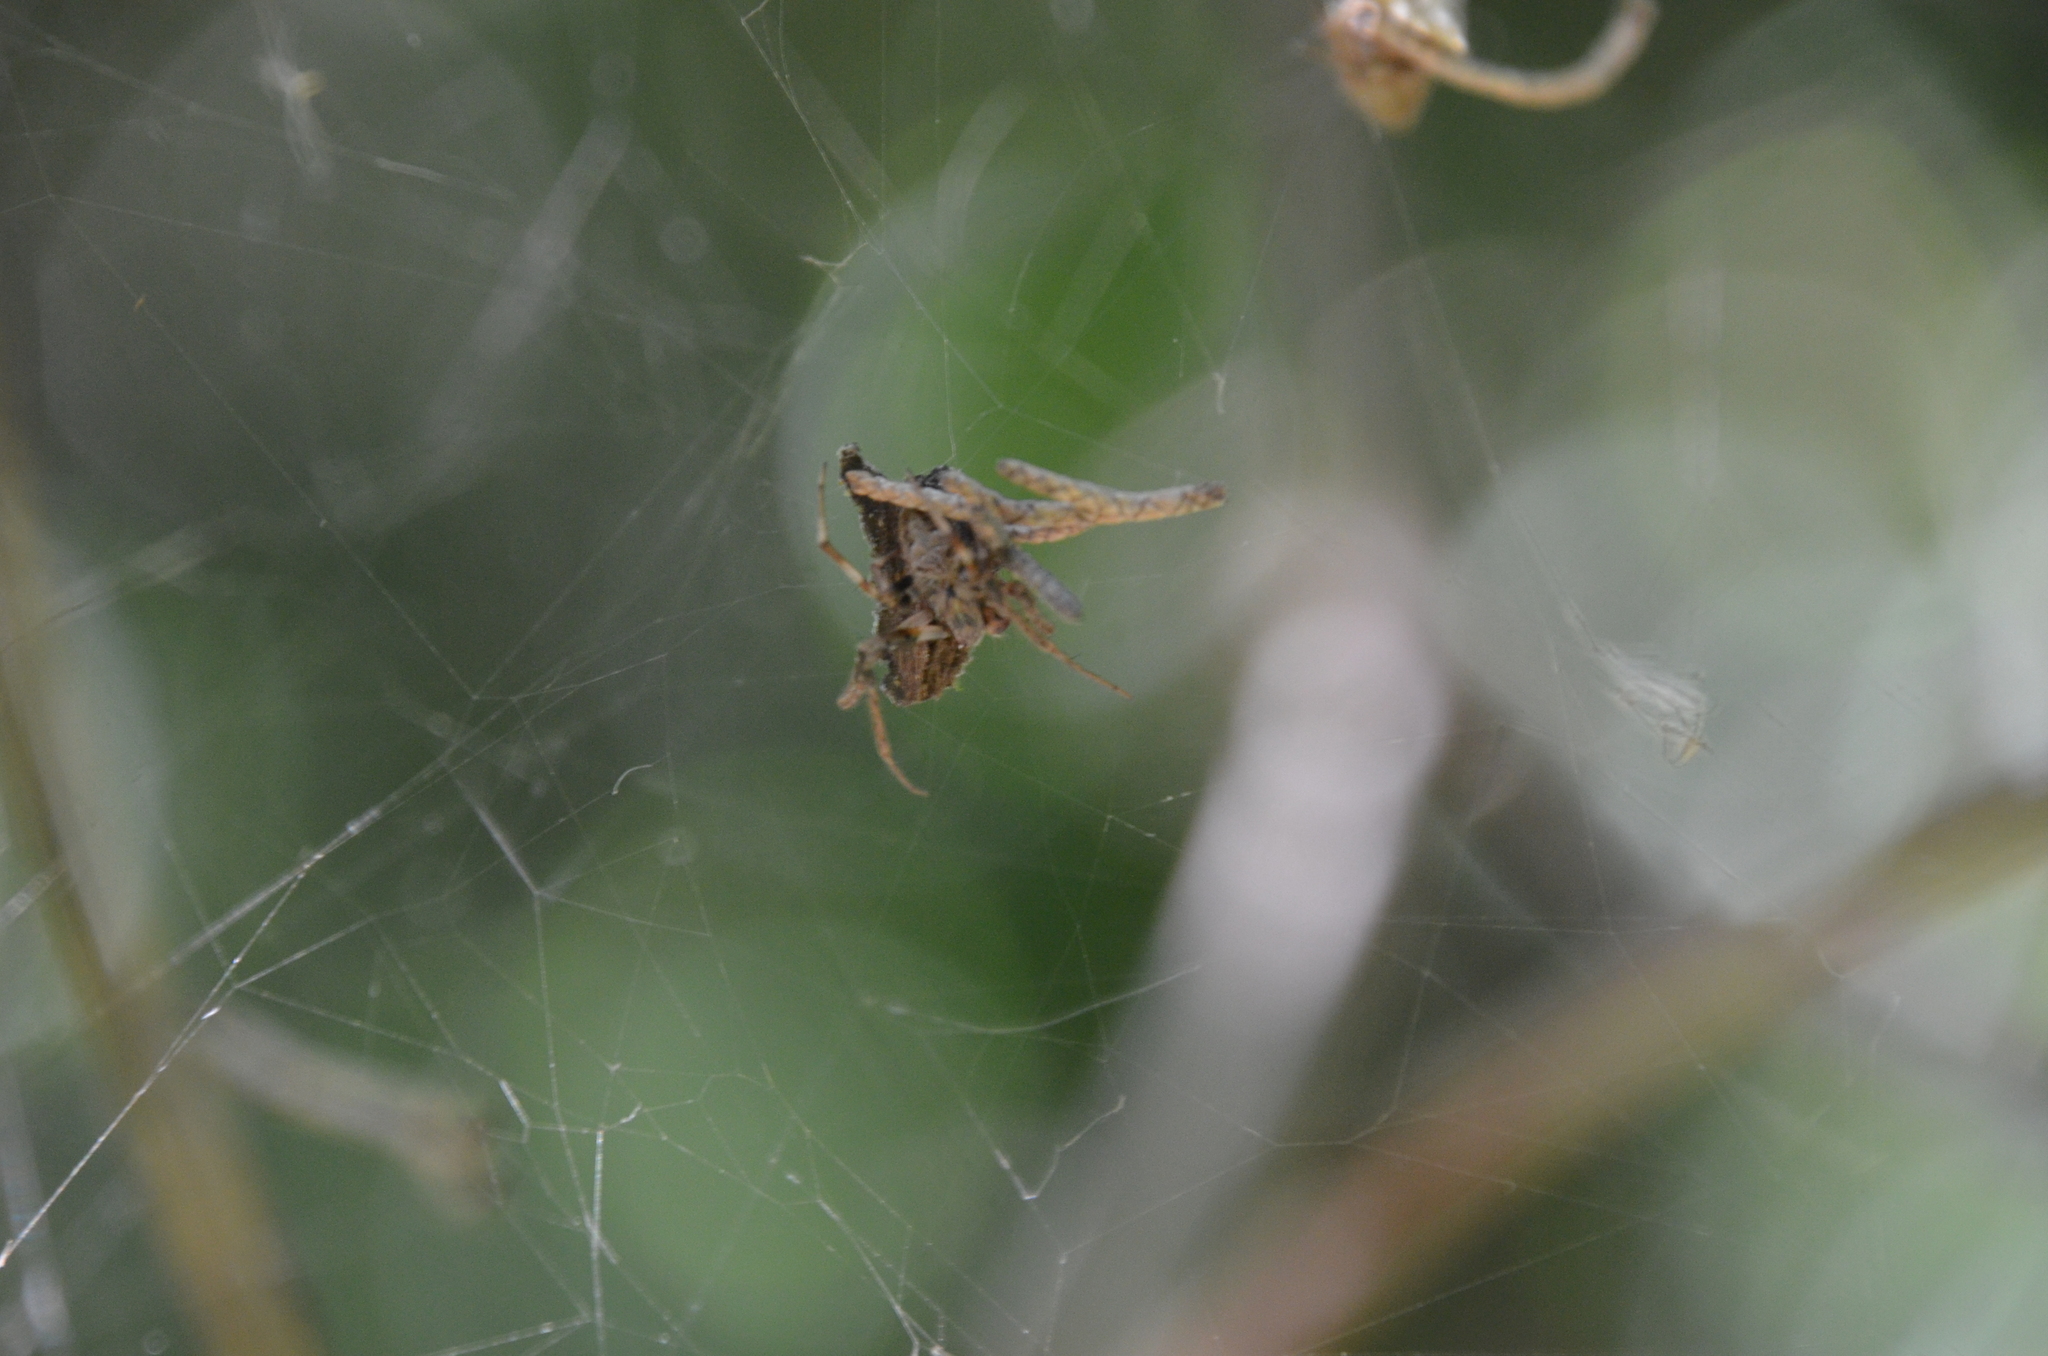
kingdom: Animalia
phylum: Arthropoda
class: Arachnida
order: Araneae
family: Araneidae
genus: Araneus
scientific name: Araneus omnicolor
